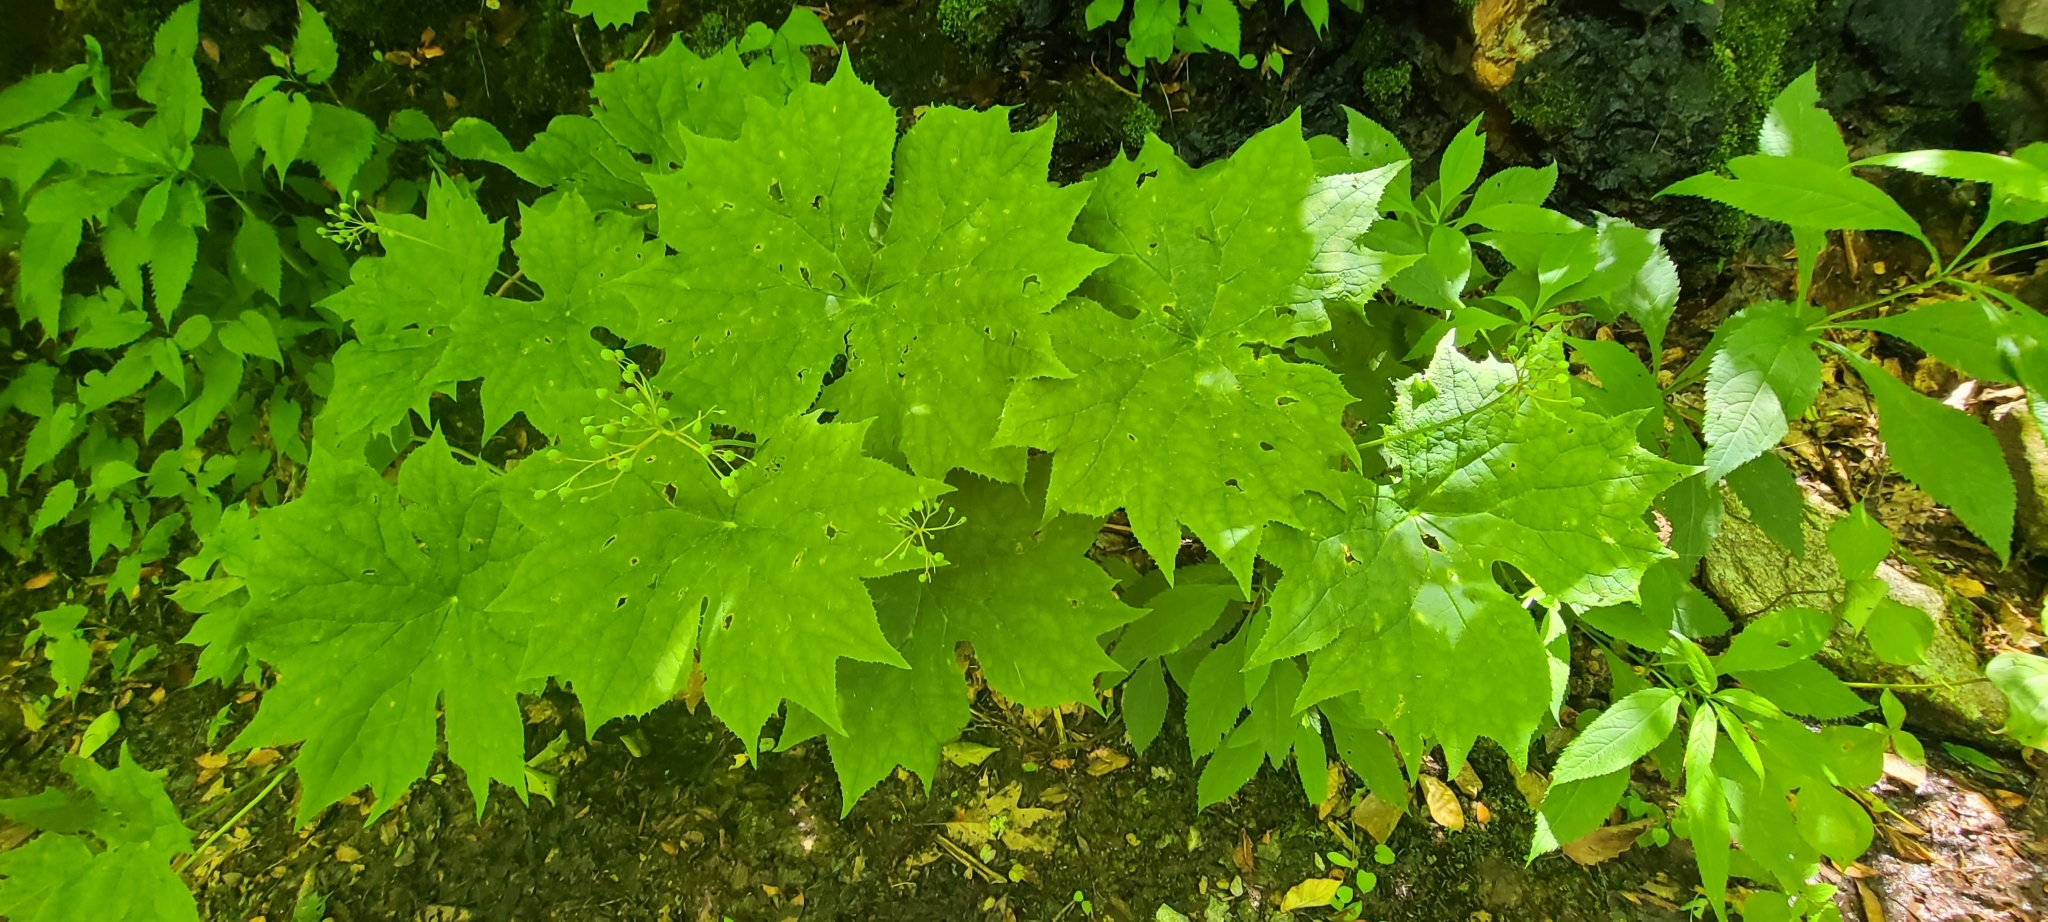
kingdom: Plantae
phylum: Tracheophyta
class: Magnoliopsida
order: Ranunculales
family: Berberidaceae
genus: Diphylleia
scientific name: Diphylleia cymosa
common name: Umbrella-leaf
